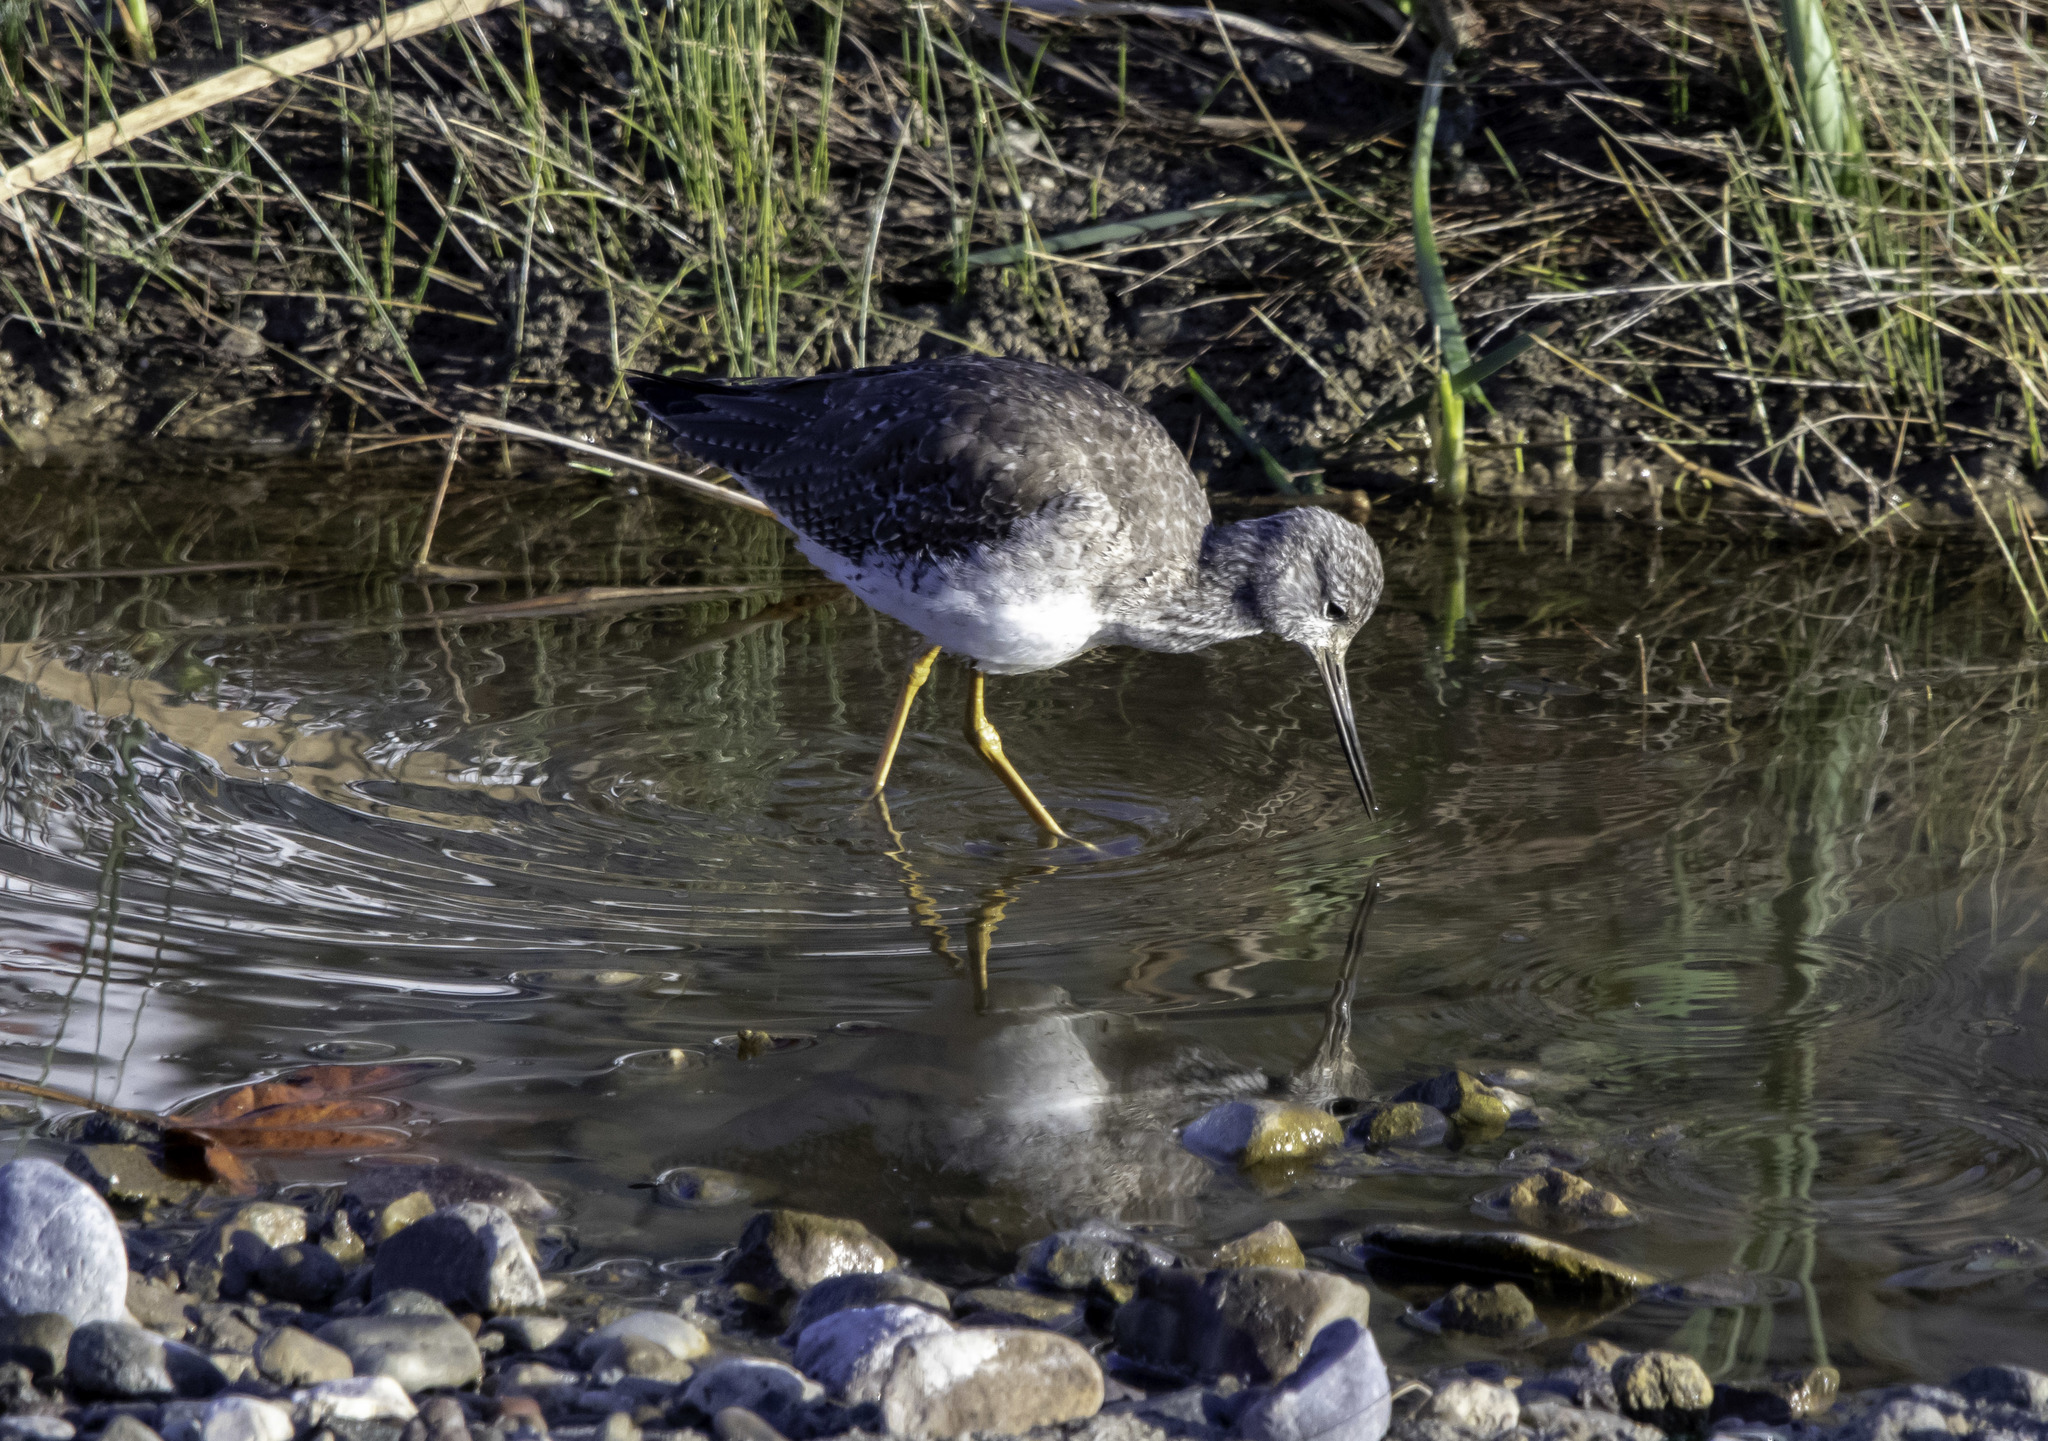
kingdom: Animalia
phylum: Chordata
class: Aves
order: Charadriiformes
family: Scolopacidae
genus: Tringa
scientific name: Tringa melanoleuca
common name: Greater yellowlegs
